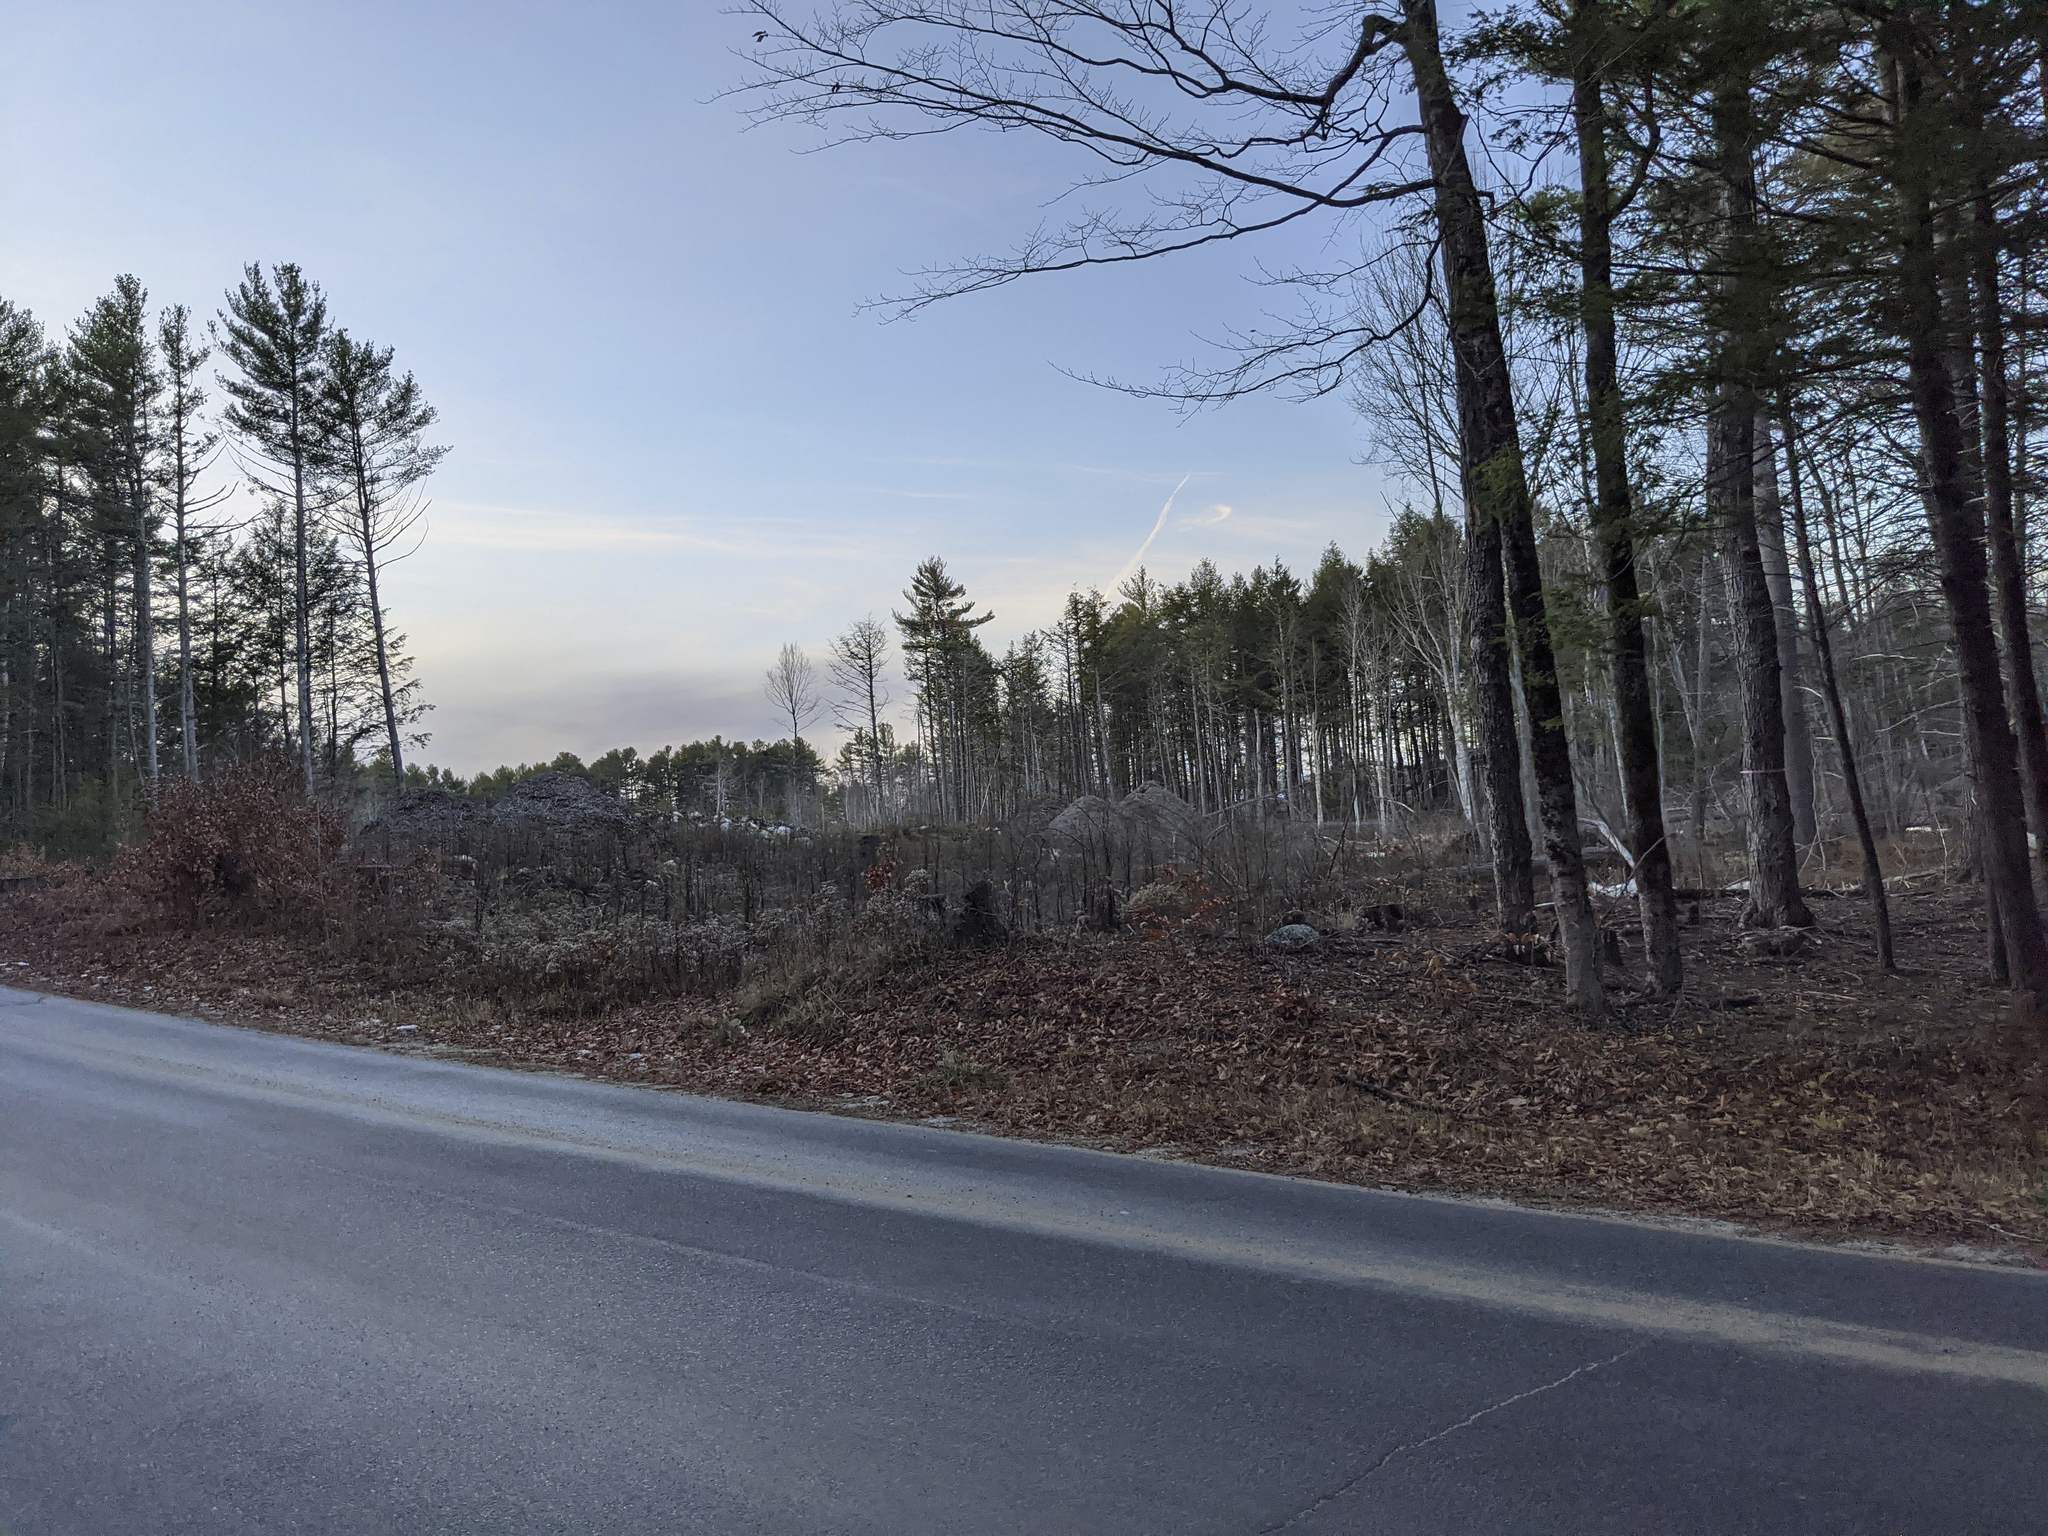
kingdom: Plantae
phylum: Tracheophyta
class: Pinopsida
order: Pinales
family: Pinaceae
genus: Pinus
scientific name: Pinus strobus
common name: Weymouth pine
